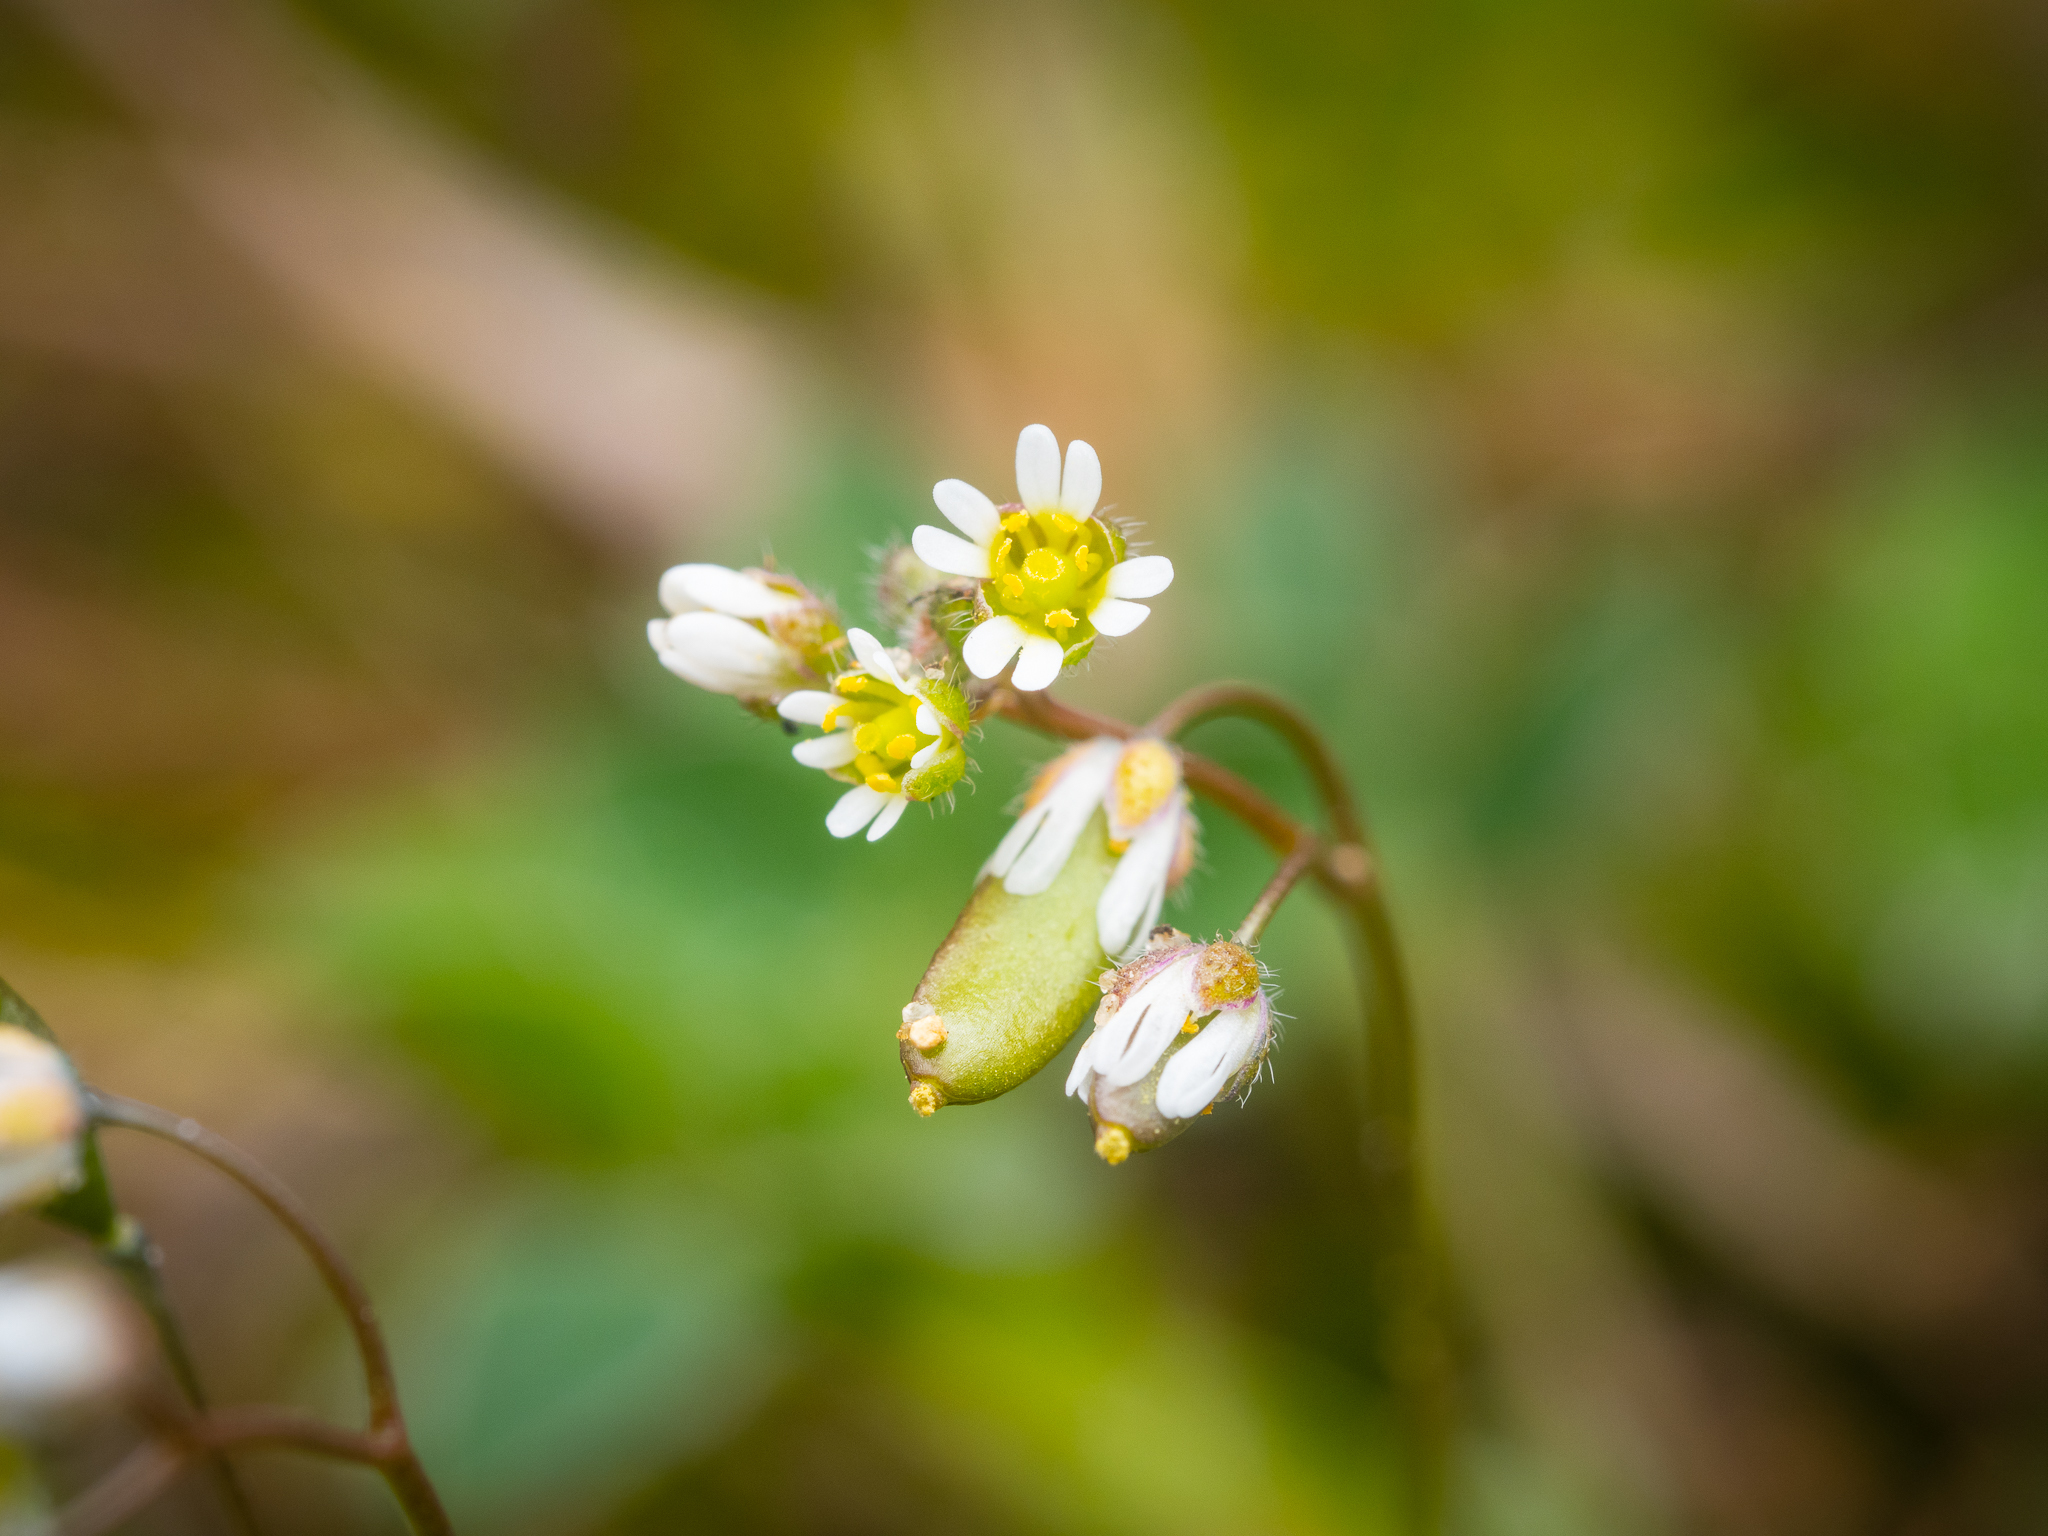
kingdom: Plantae
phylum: Tracheophyta
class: Magnoliopsida
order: Brassicales
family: Brassicaceae
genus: Draba
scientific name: Draba verna
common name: Spring draba
